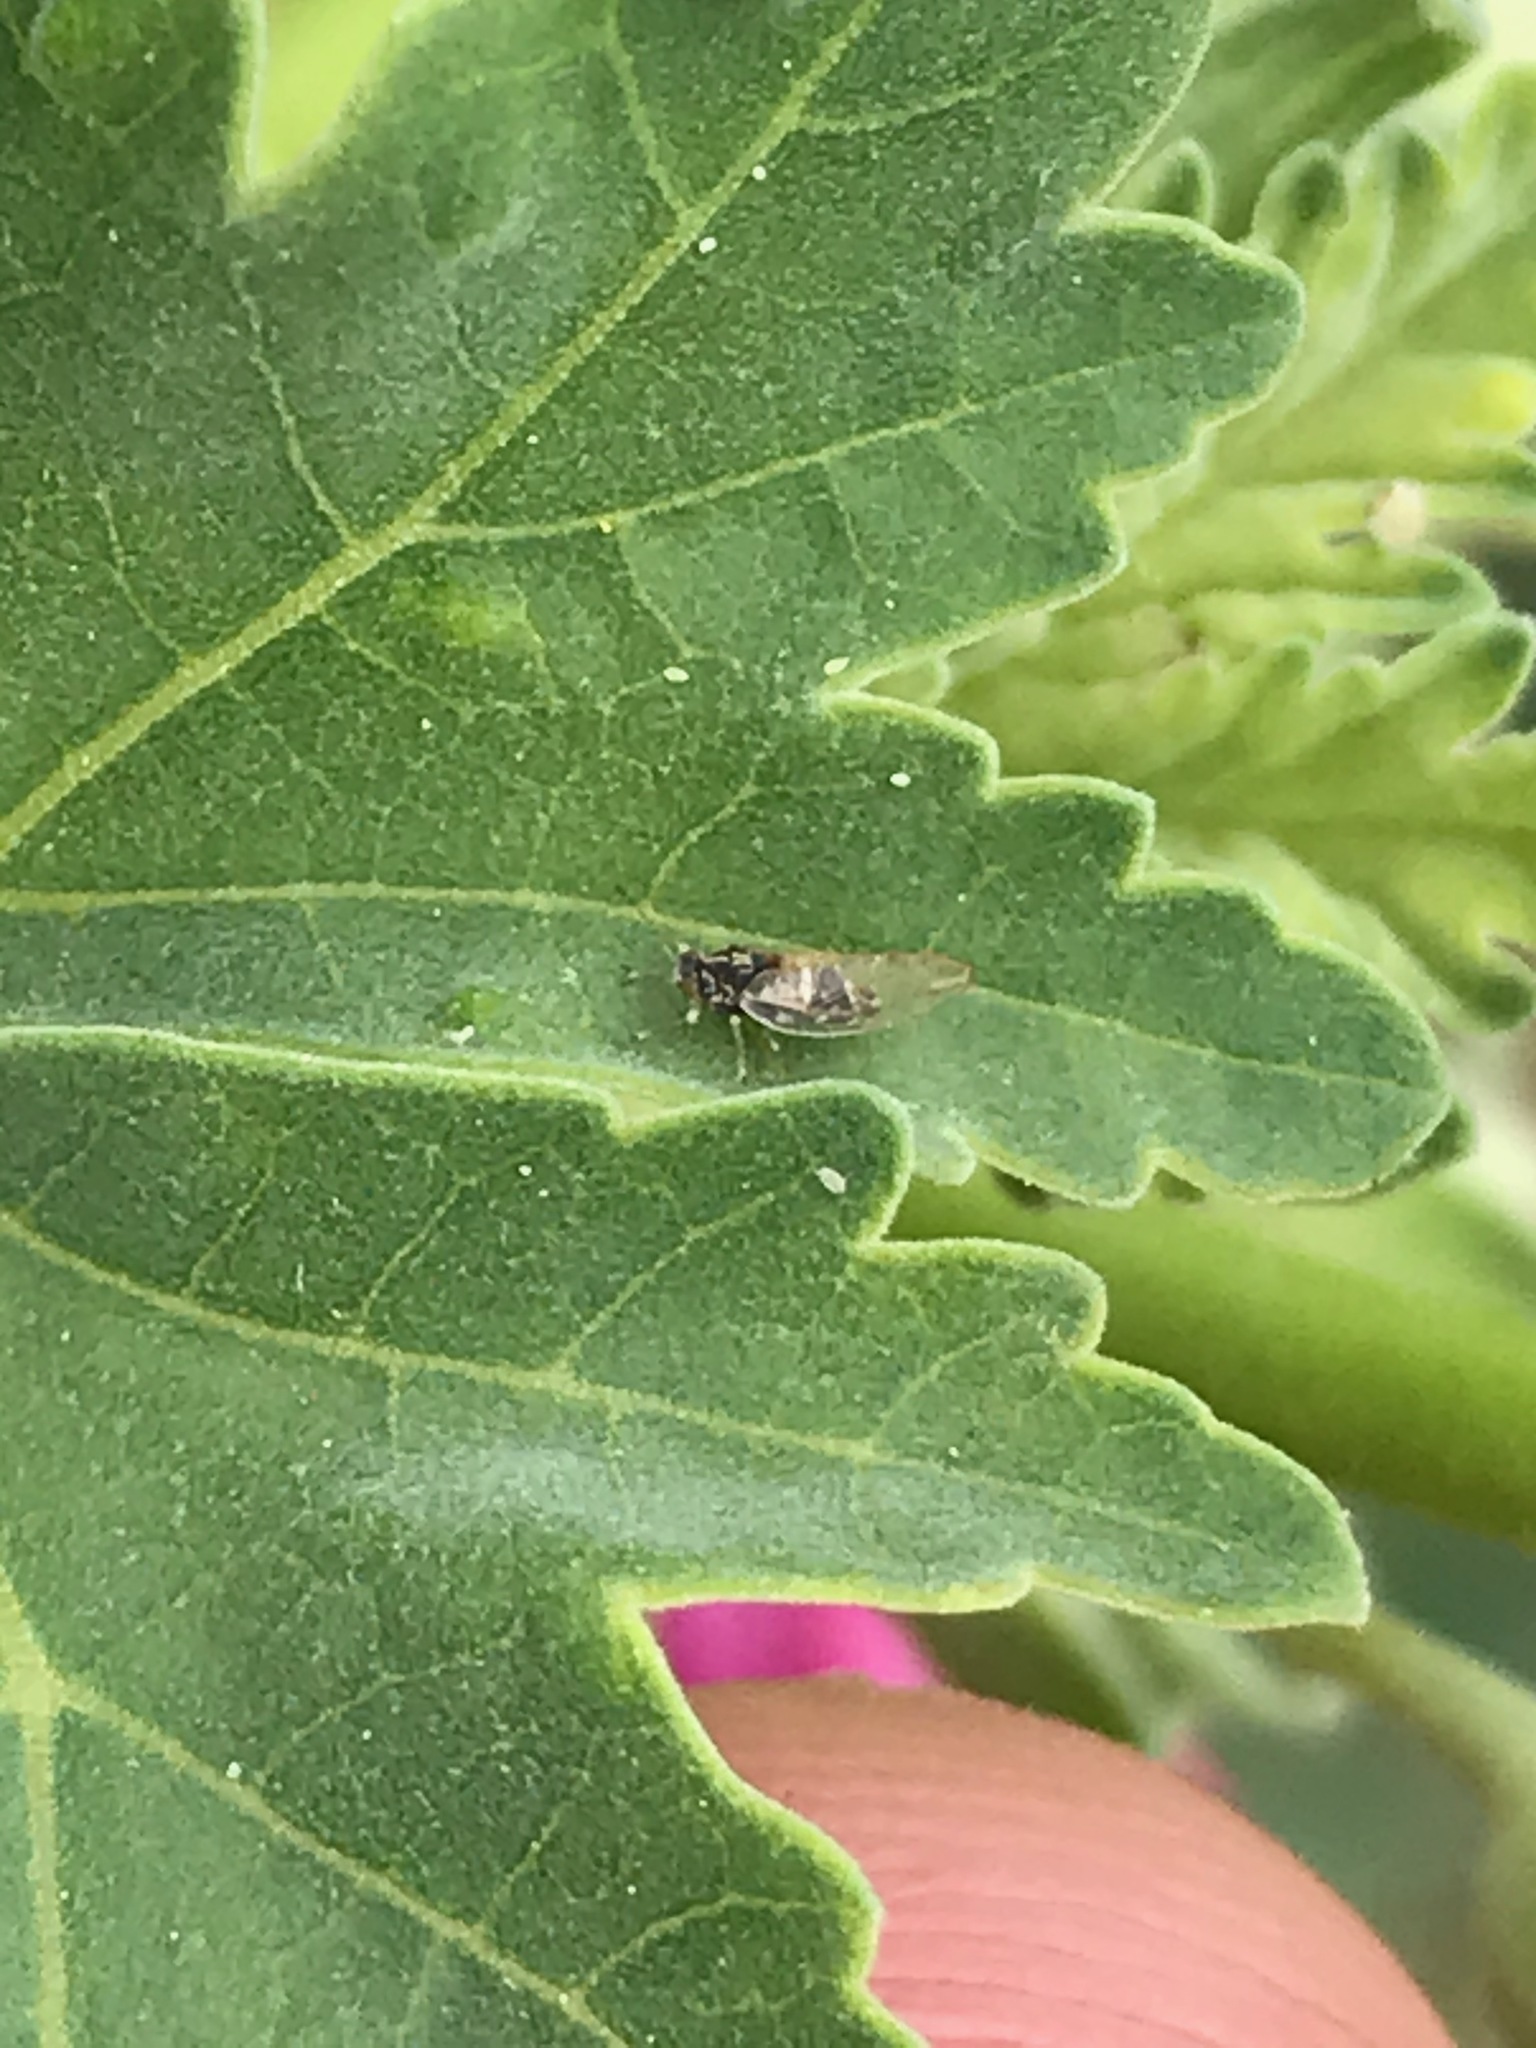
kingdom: Animalia
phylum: Arthropoda
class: Insecta
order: Hemiptera
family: Triozidae
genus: Bactericera
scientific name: Bactericera lavaterae
